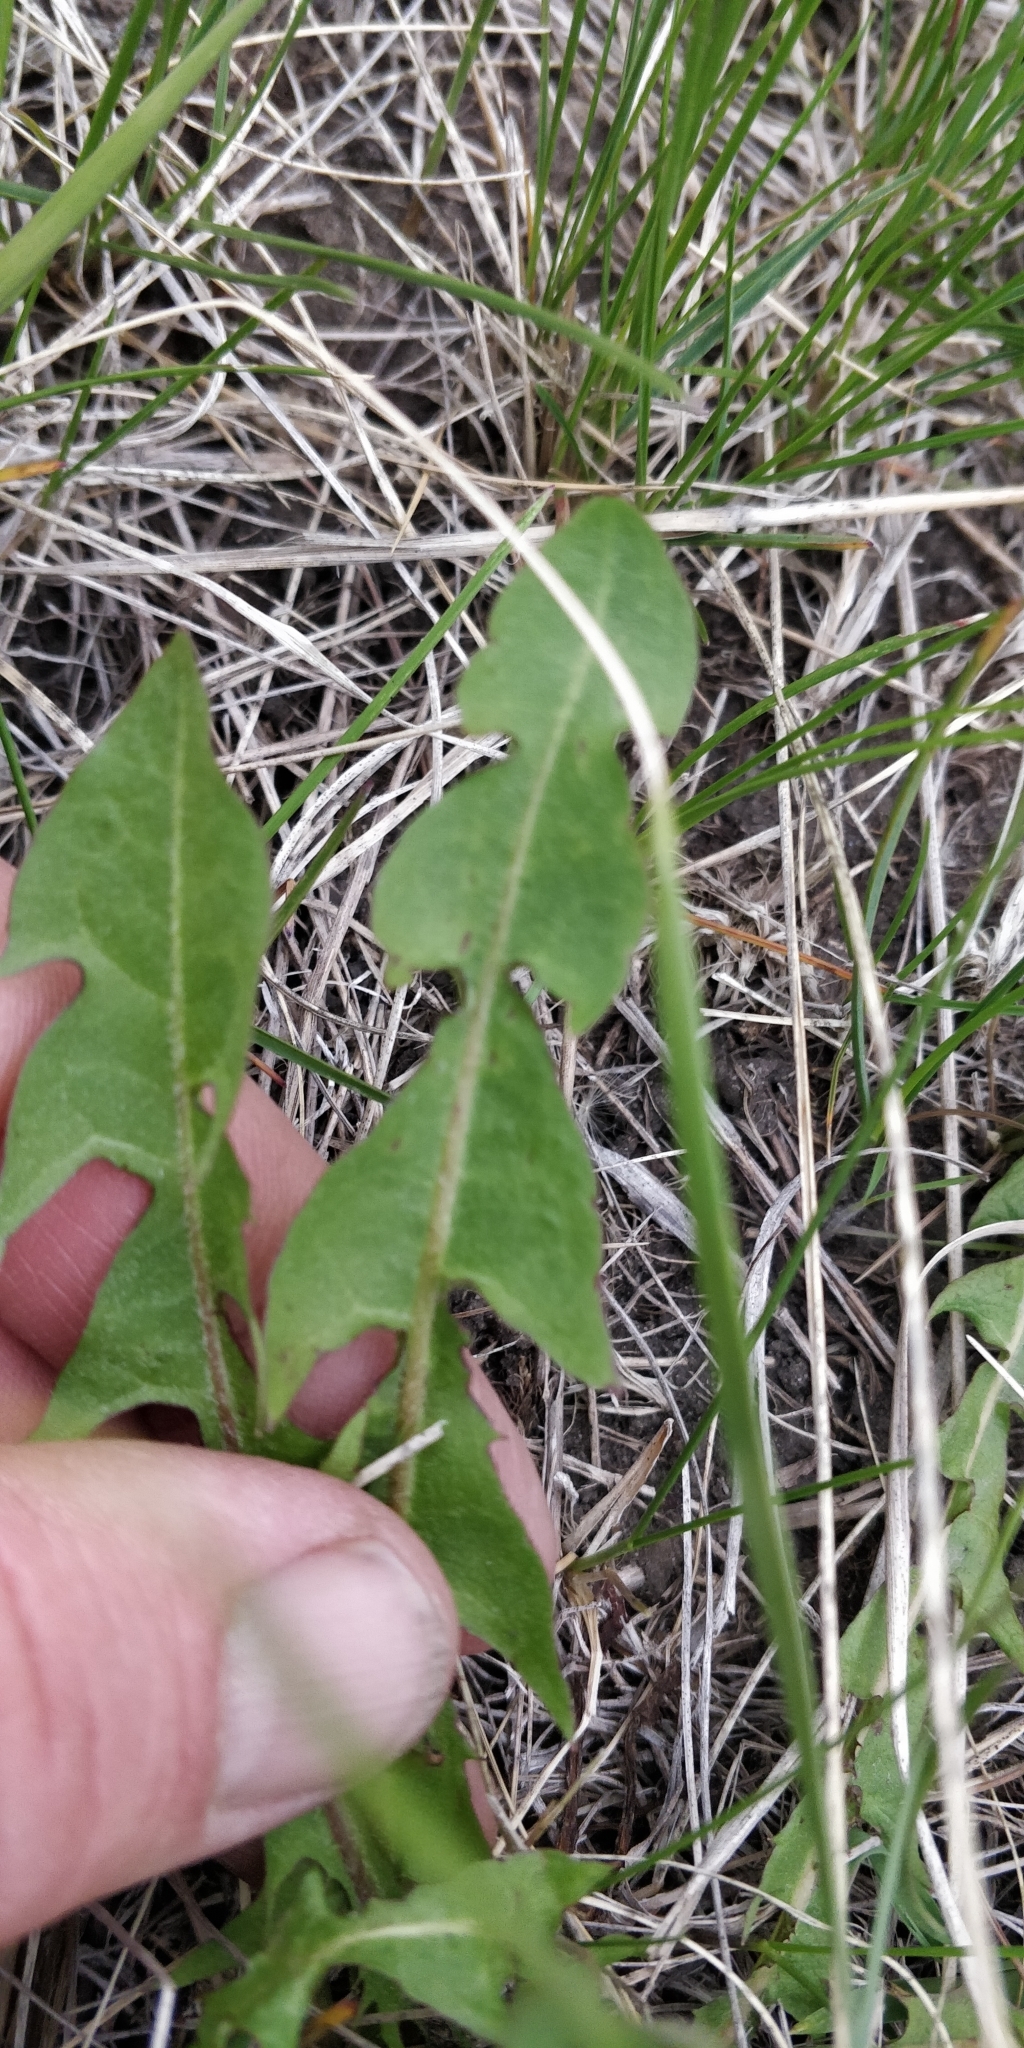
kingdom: Plantae
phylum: Tracheophyta
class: Magnoliopsida
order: Asterales
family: Asteraceae
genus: Taraxacum
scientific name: Taraxacum officinale
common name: Common dandelion
